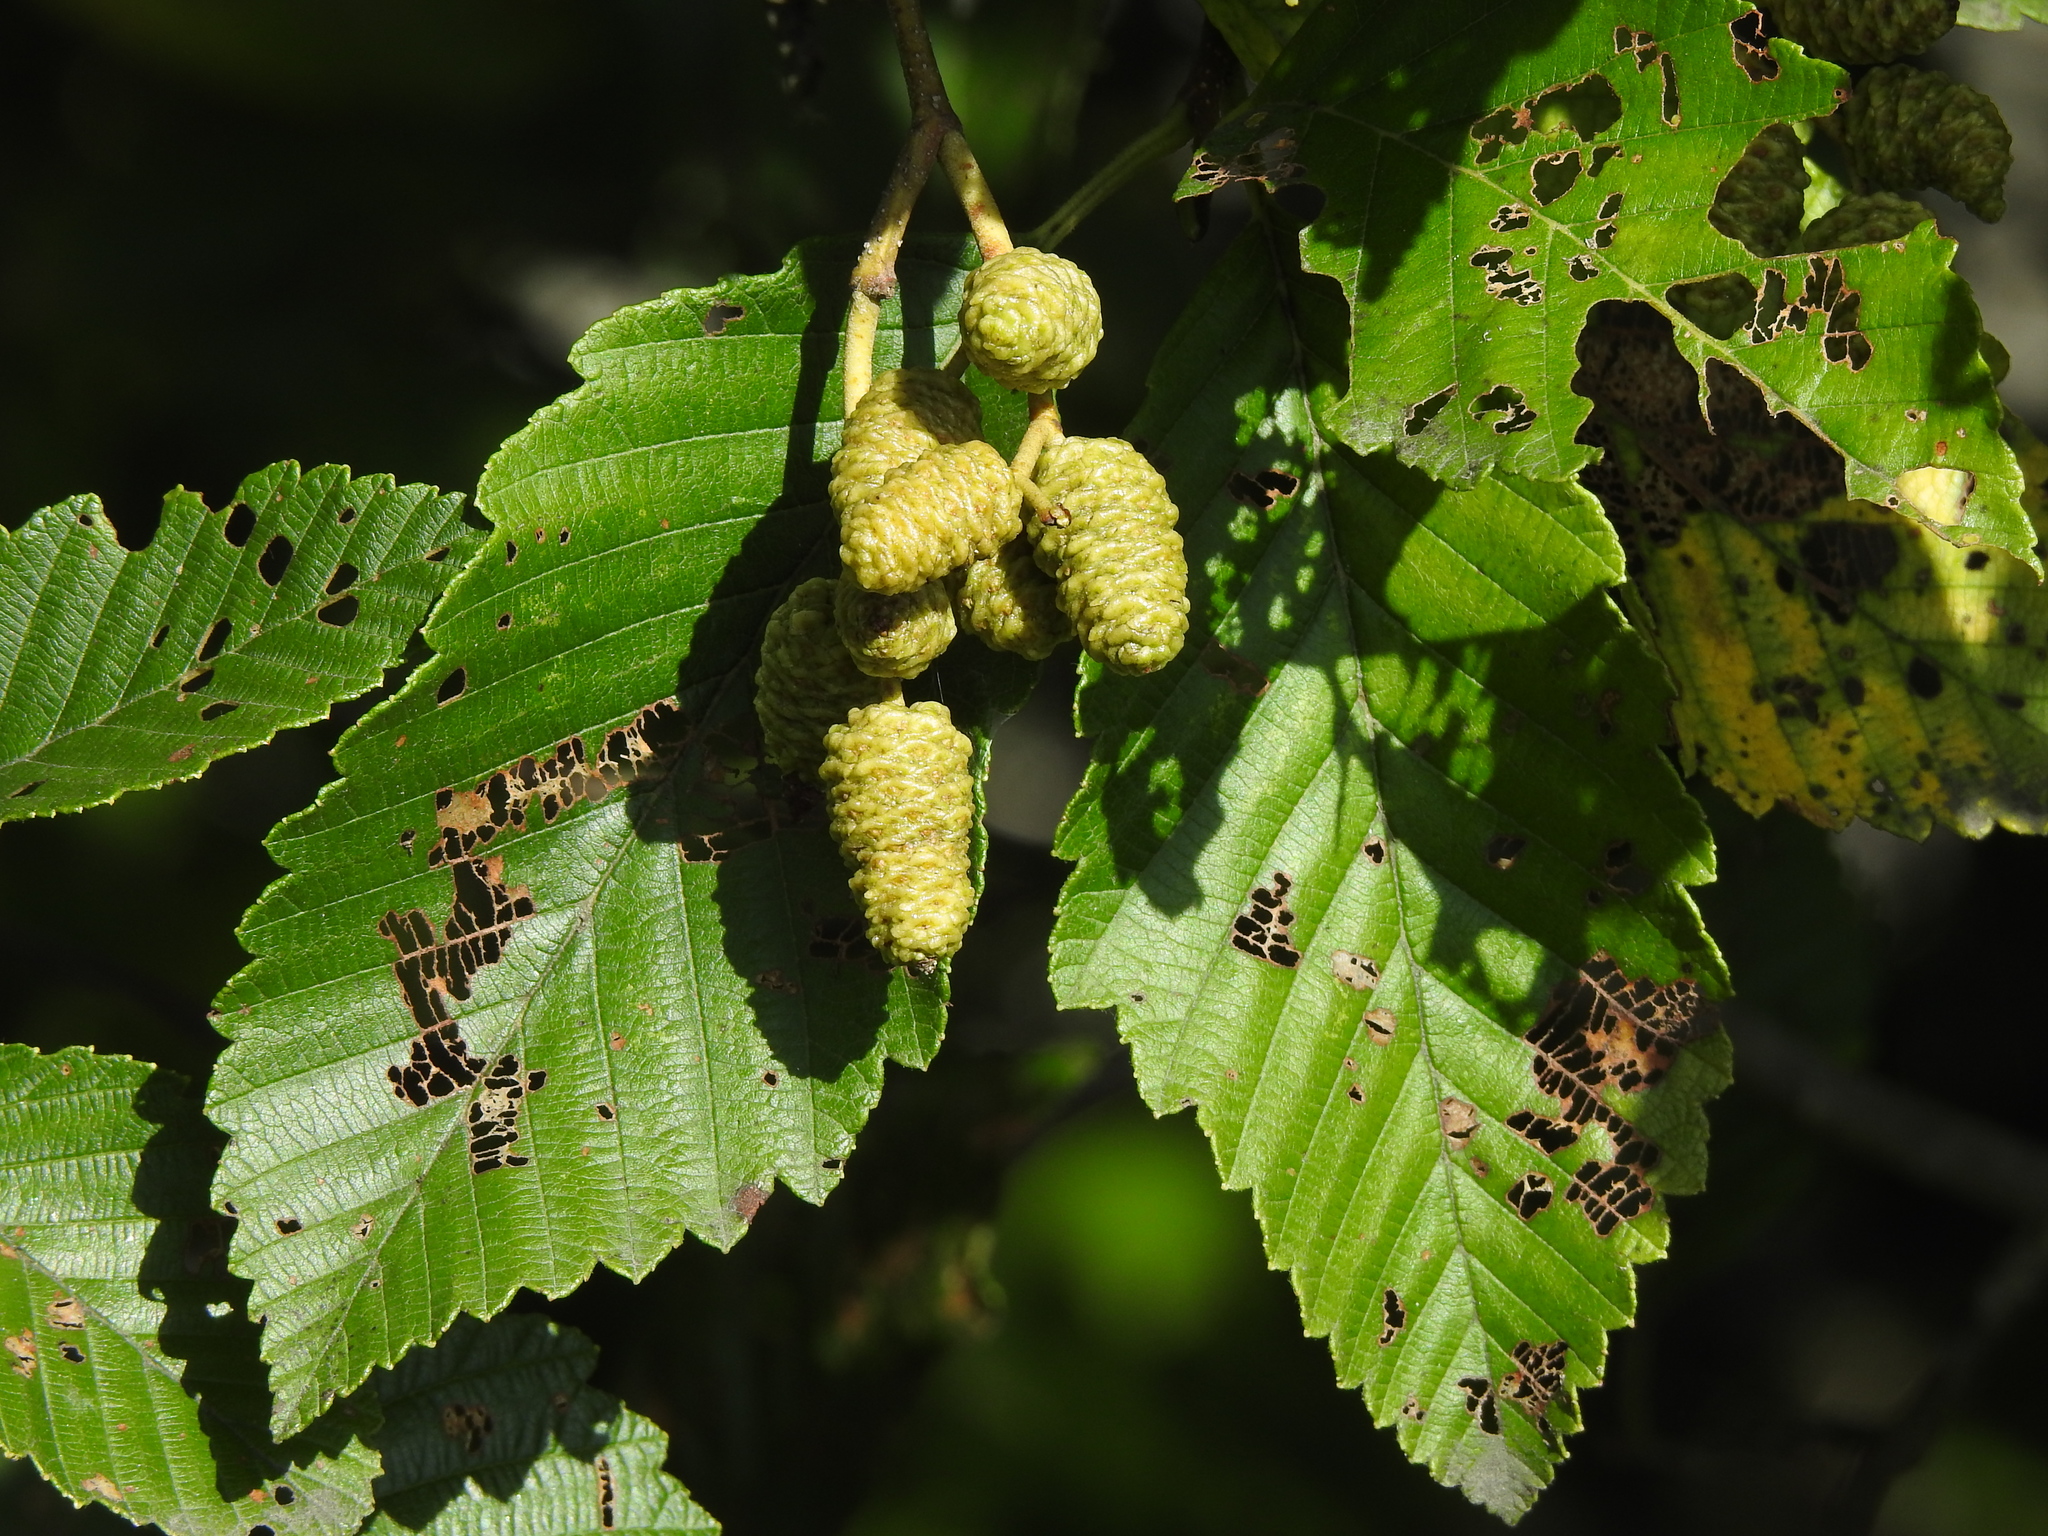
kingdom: Plantae
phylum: Tracheophyta
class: Magnoliopsida
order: Fagales
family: Betulaceae
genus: Alnus
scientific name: Alnus rubra
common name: Red alder
